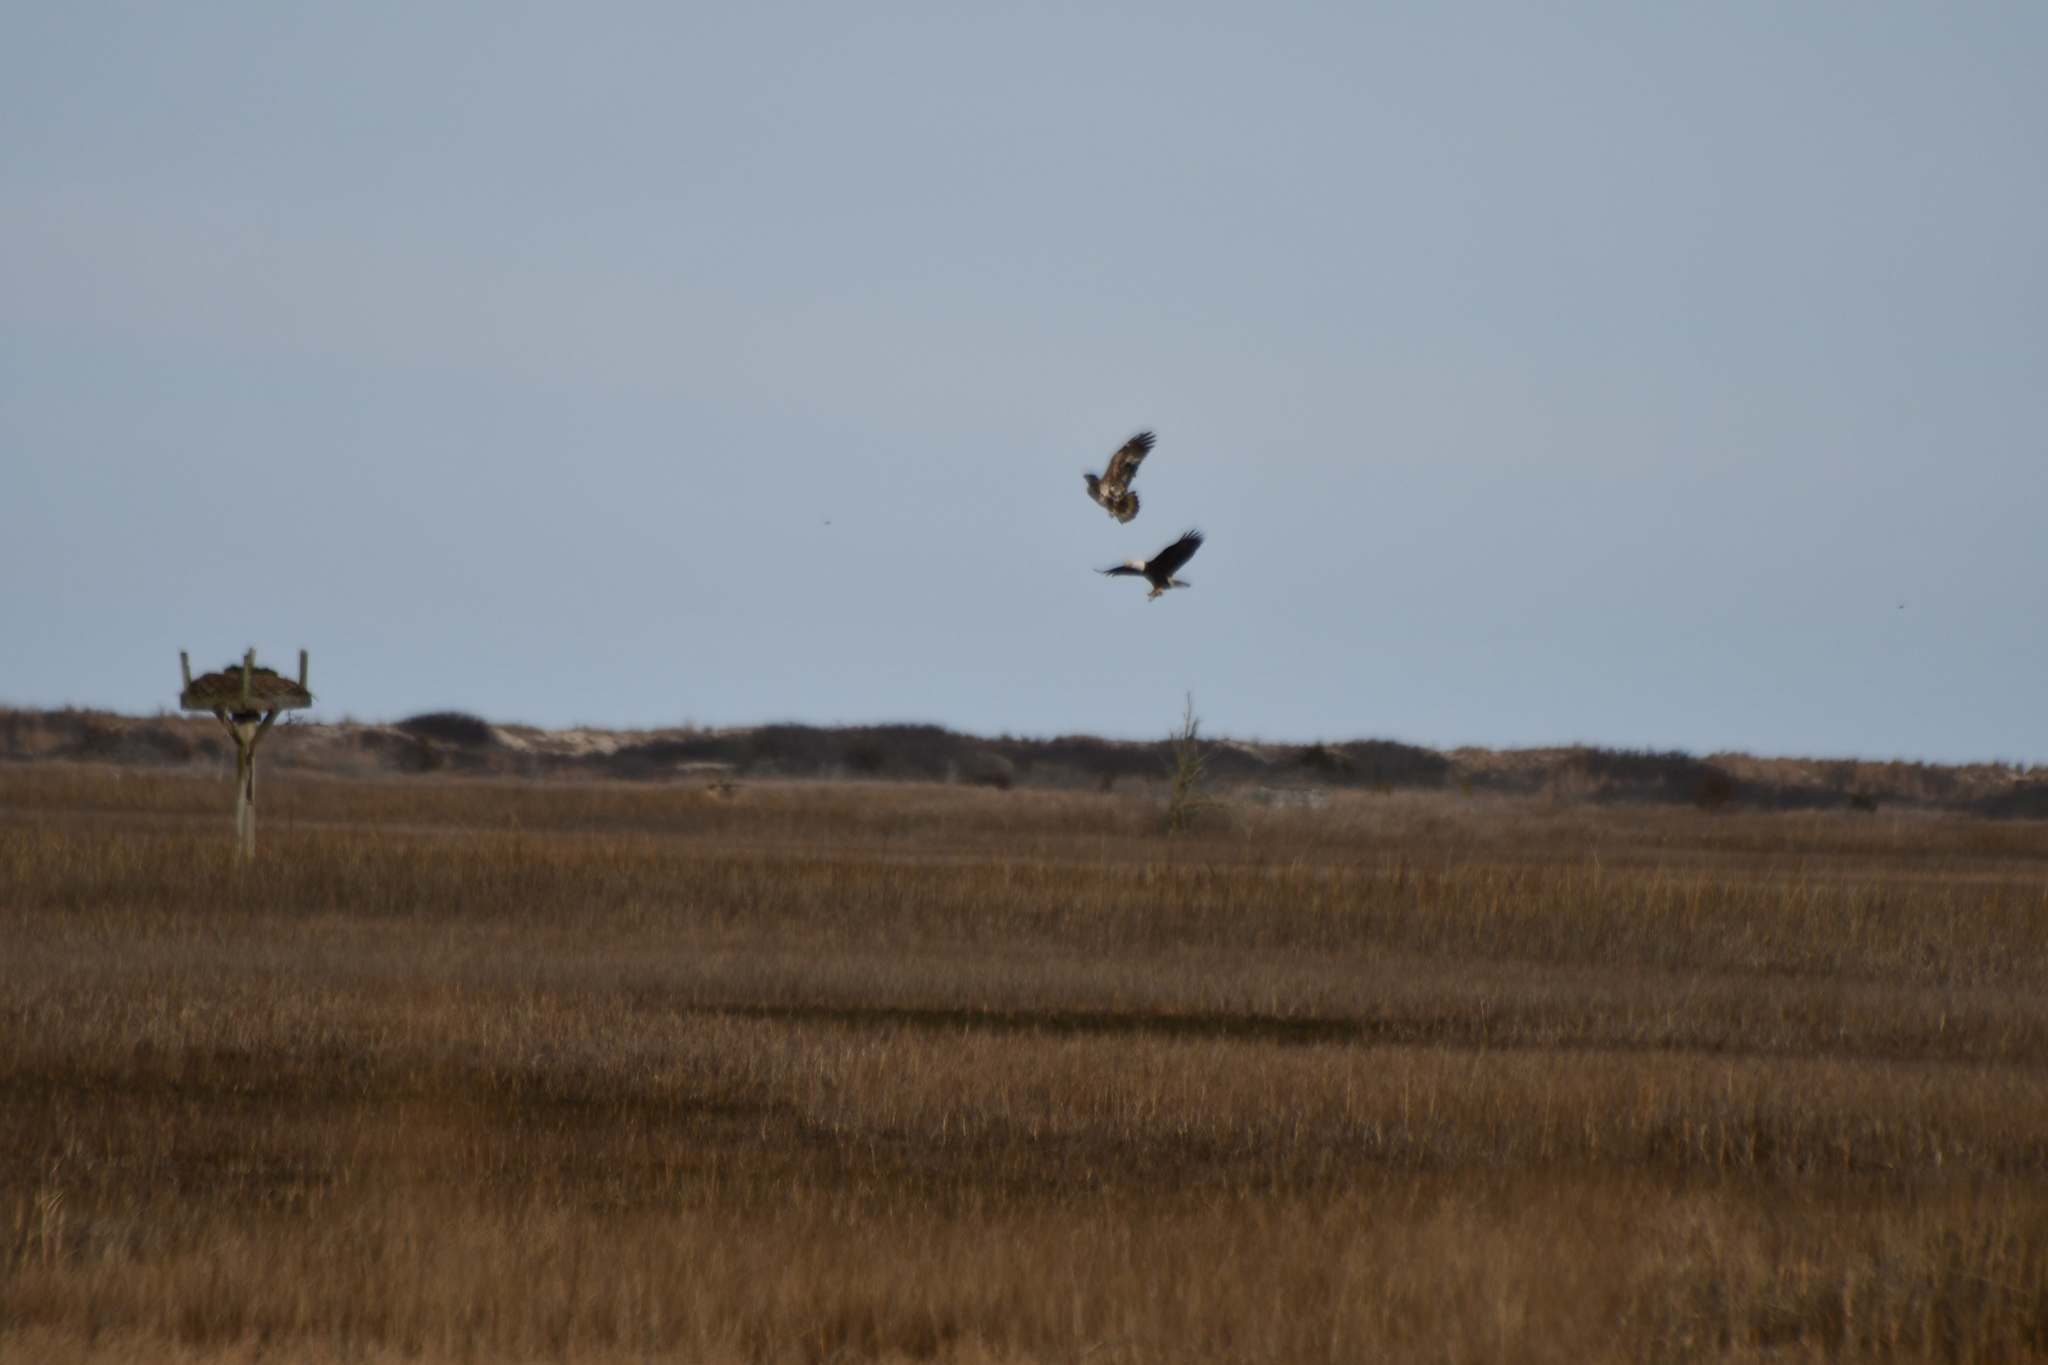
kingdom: Animalia
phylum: Chordata
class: Aves
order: Accipitriformes
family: Accipitridae
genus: Haliaeetus
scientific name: Haliaeetus leucocephalus
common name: Bald eagle
